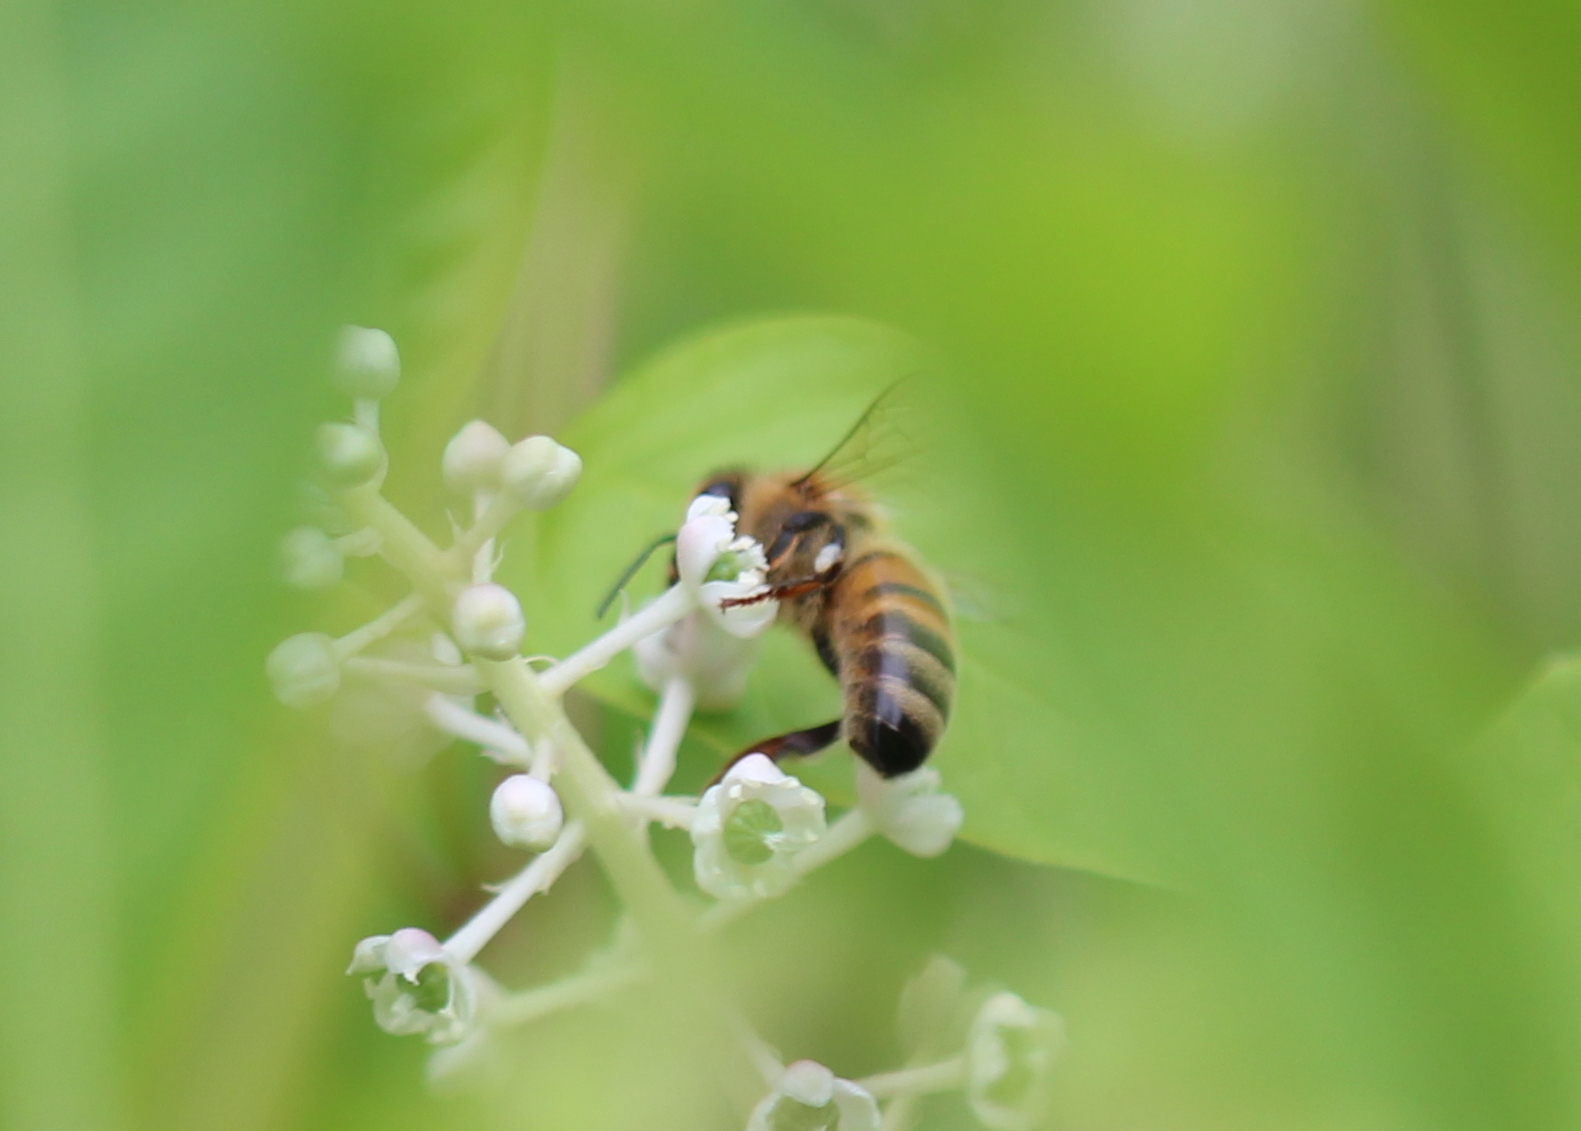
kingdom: Animalia
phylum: Arthropoda
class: Insecta
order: Hymenoptera
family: Apidae
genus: Apis
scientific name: Apis mellifera
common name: Honey bee
